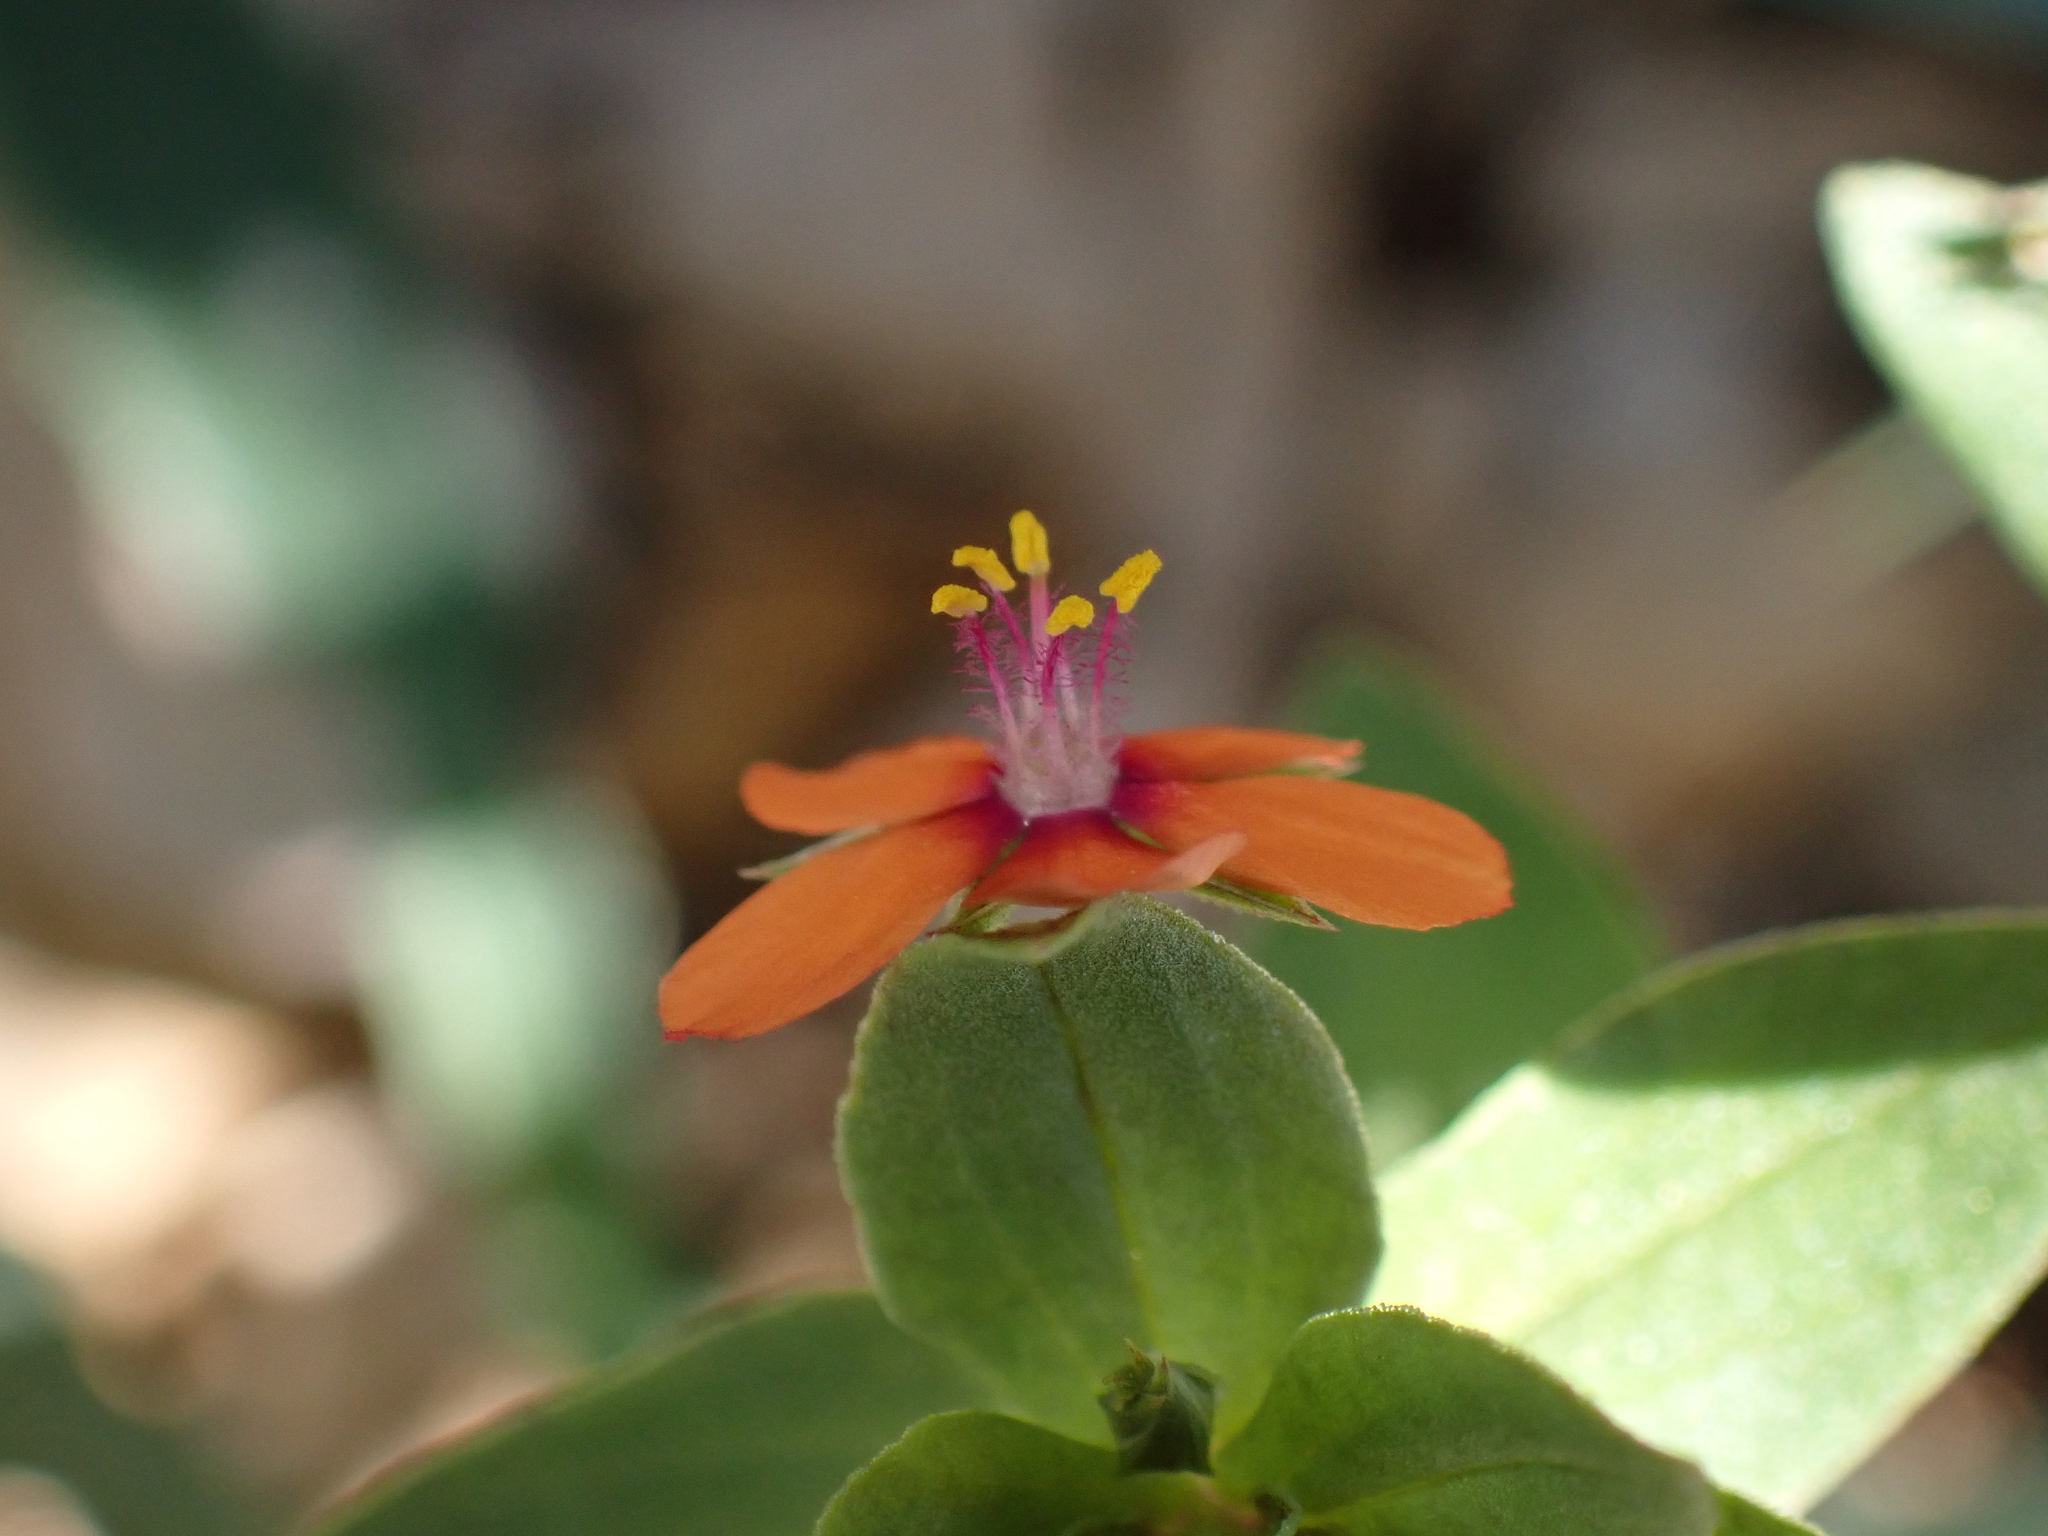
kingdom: Plantae
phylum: Tracheophyta
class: Magnoliopsida
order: Ericales
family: Primulaceae
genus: Lysimachia
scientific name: Lysimachia arvensis
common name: Scarlet pimpernel
